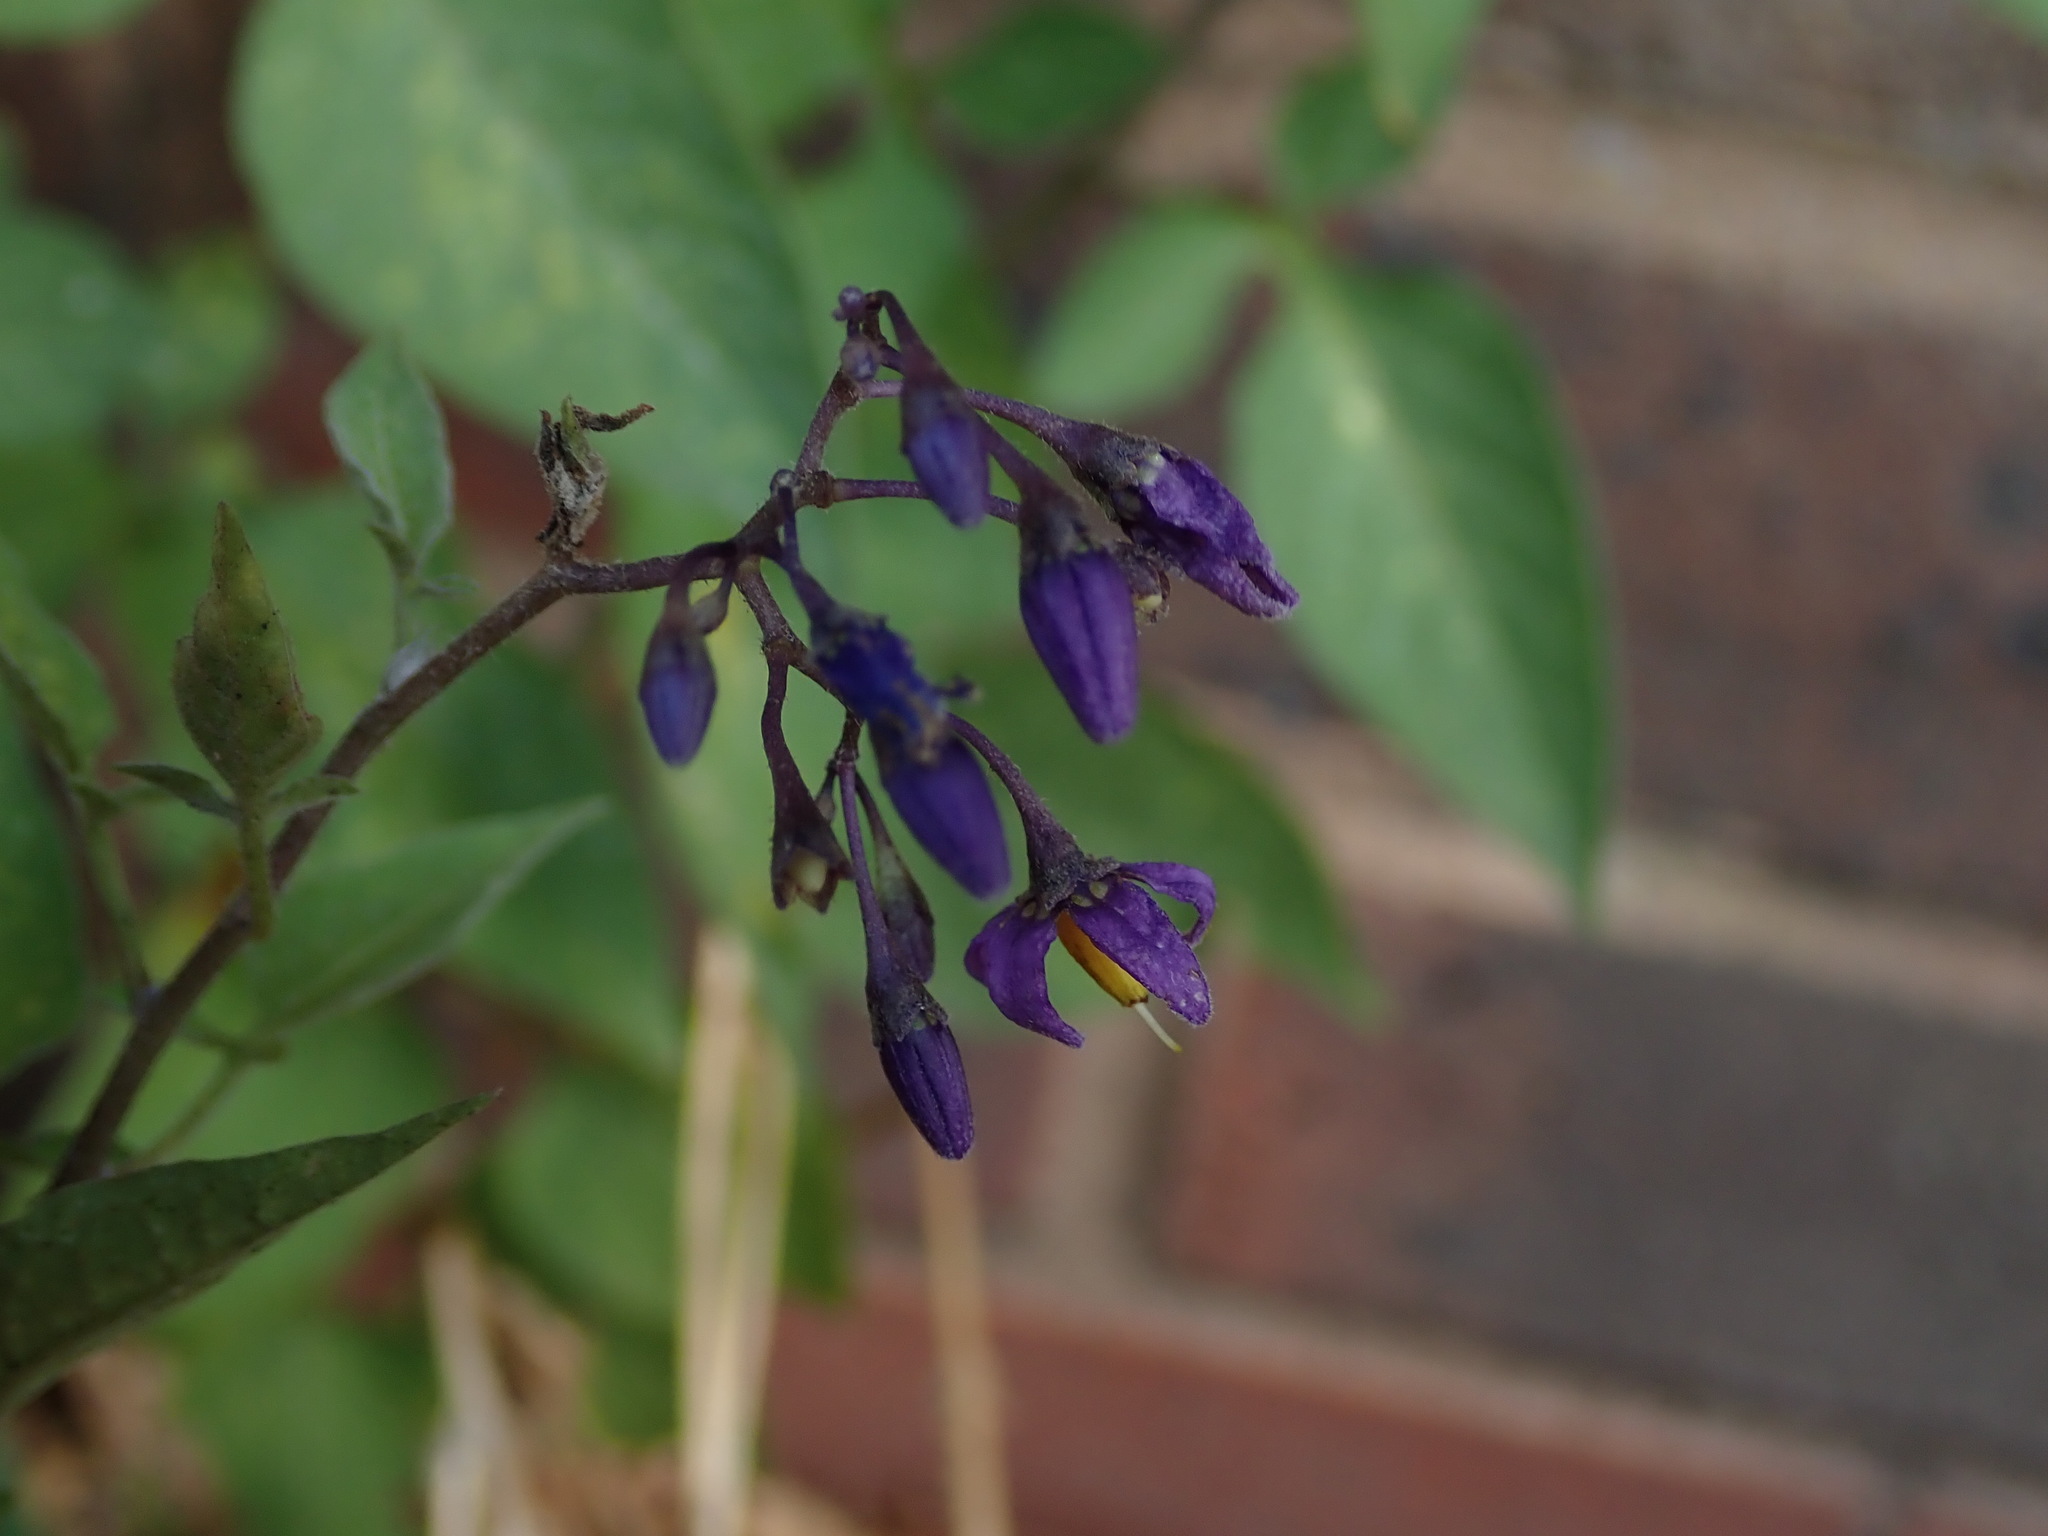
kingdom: Plantae
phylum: Tracheophyta
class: Magnoliopsida
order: Solanales
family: Solanaceae
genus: Solanum
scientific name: Solanum dulcamara
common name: Climbing nightshade
